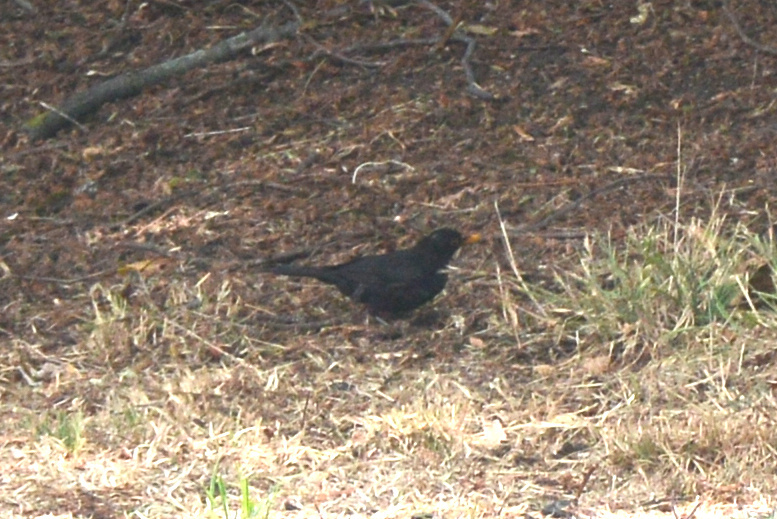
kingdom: Animalia
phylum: Chordata
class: Aves
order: Passeriformes
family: Turdidae
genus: Turdus
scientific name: Turdus merula
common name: Common blackbird
